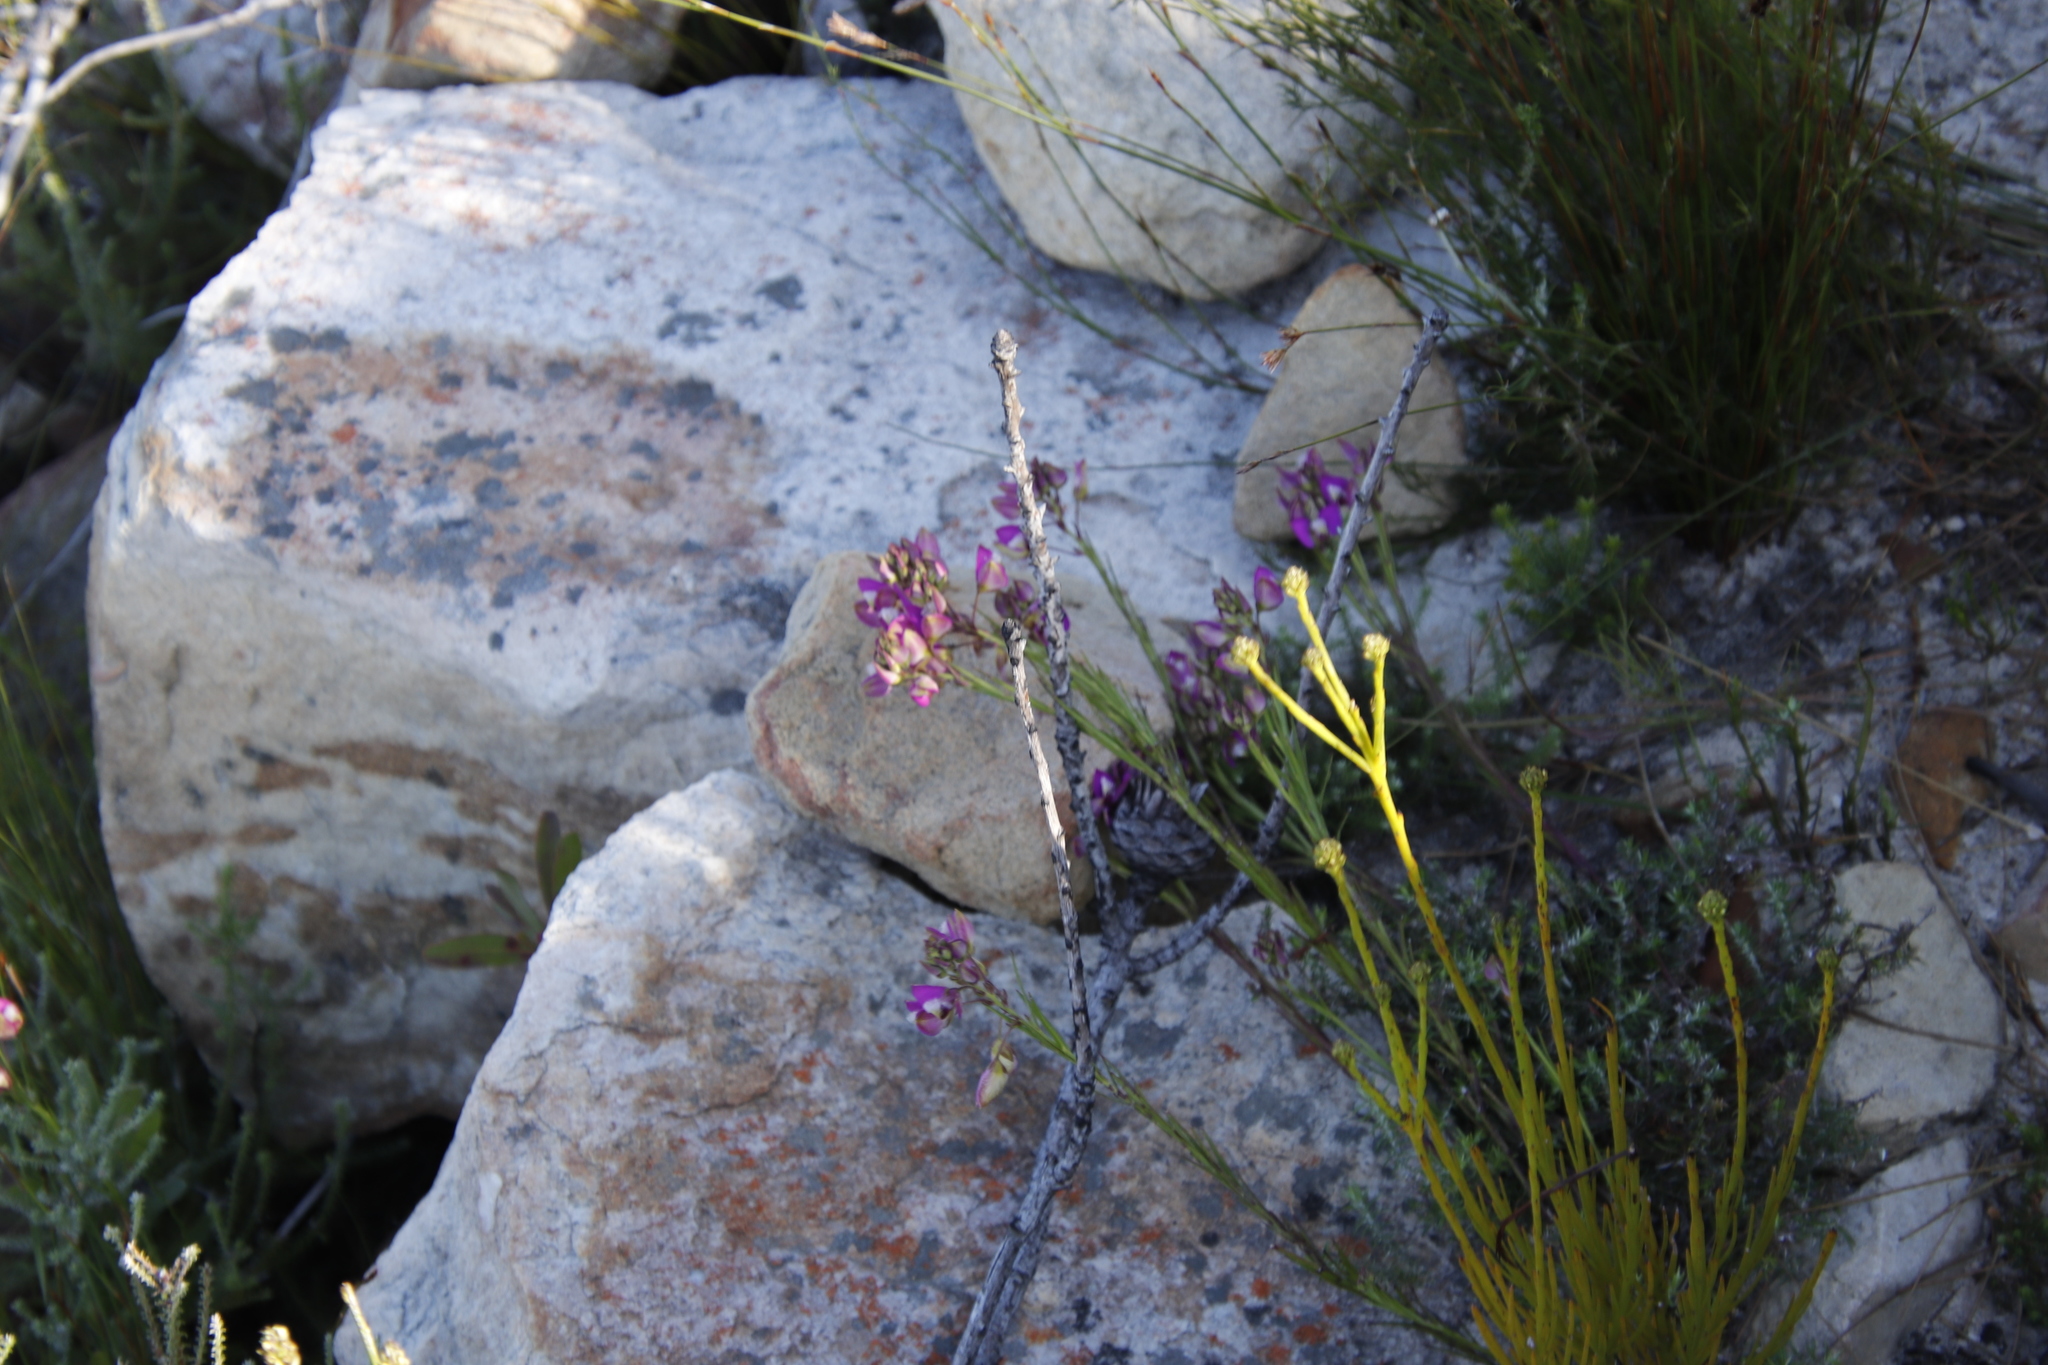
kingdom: Plantae
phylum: Tracheophyta
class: Magnoliopsida
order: Fabales
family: Polygalaceae
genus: Polygala
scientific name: Polygala bracteolata
